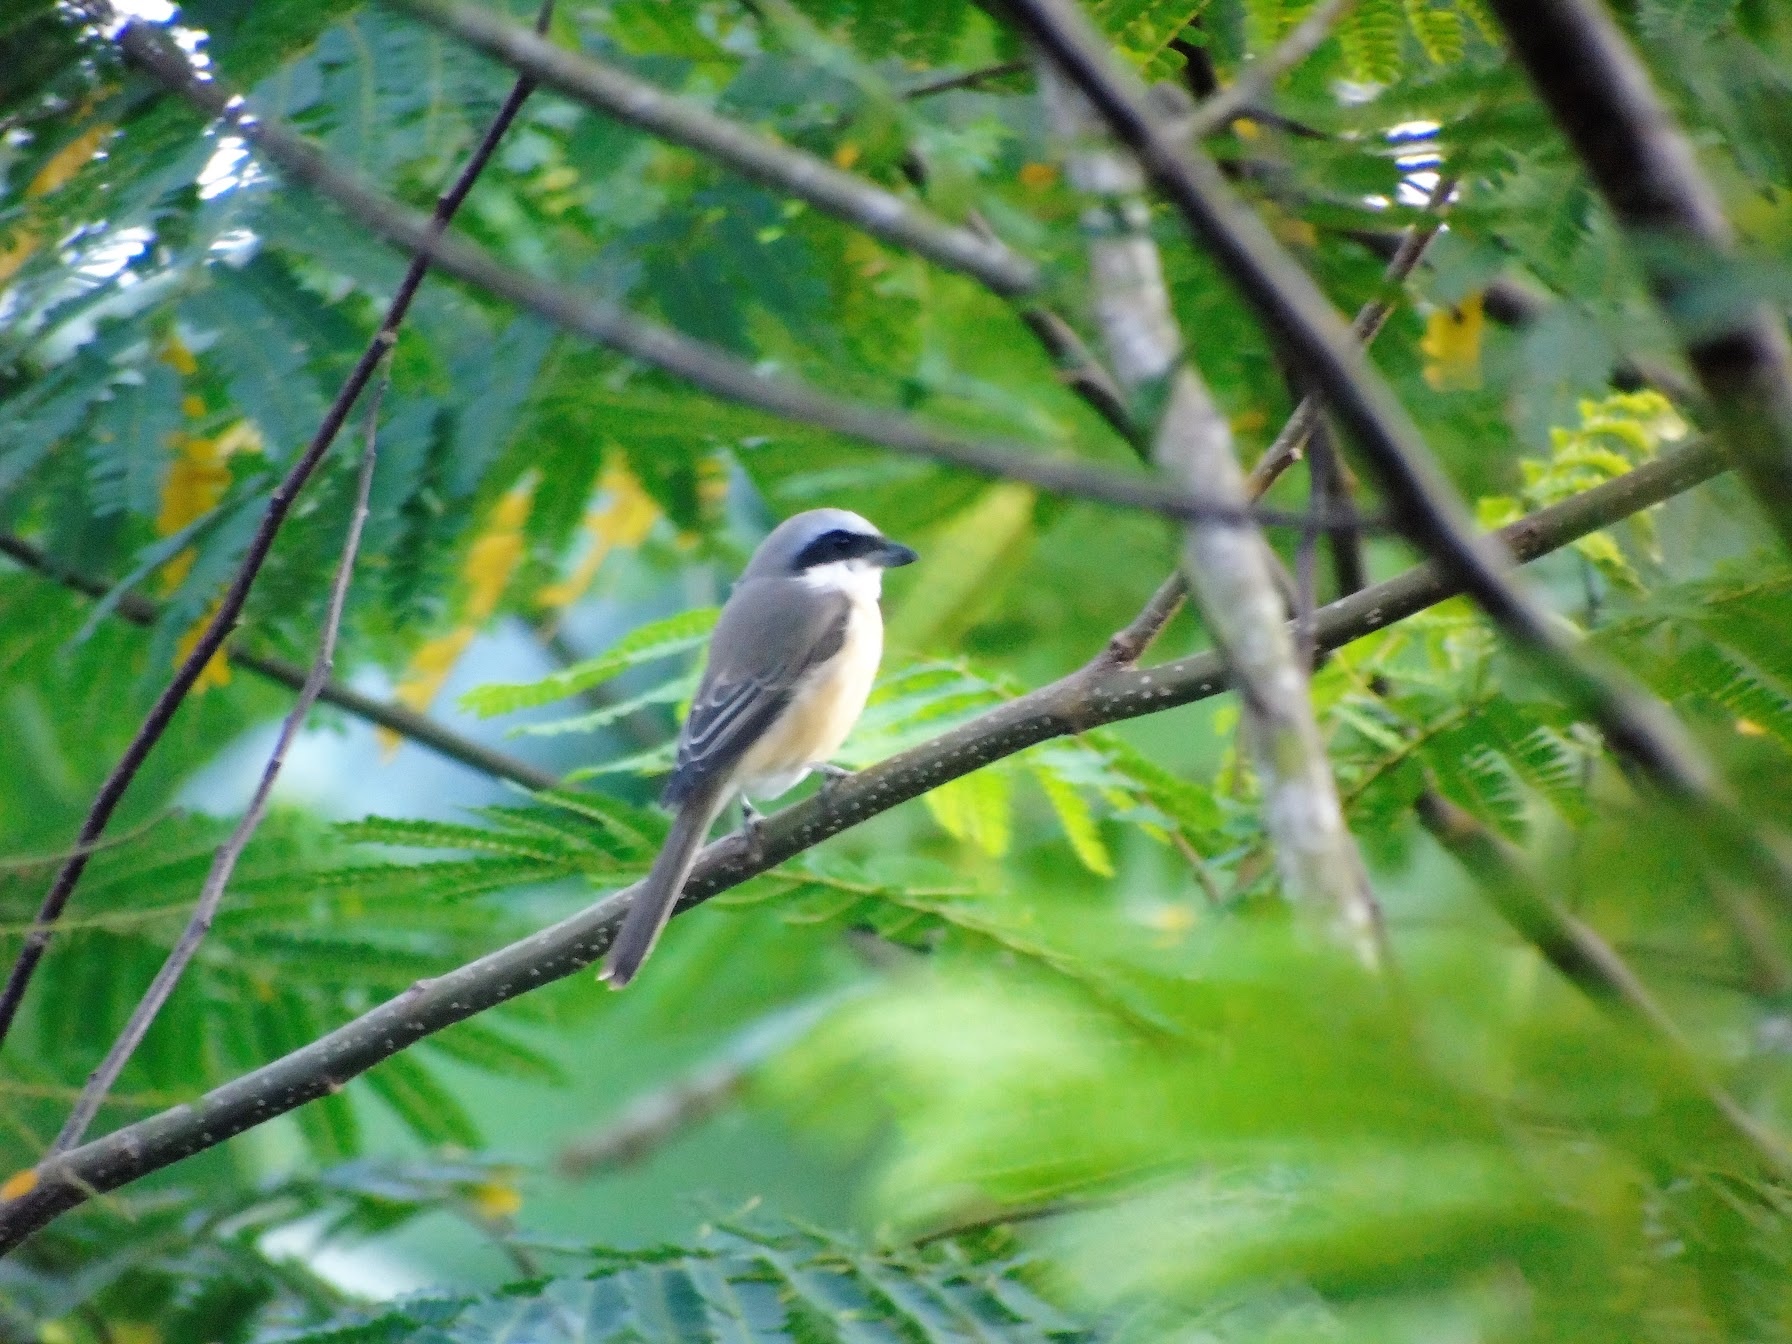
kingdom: Animalia
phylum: Chordata
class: Aves
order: Passeriformes
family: Laniidae
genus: Lanius
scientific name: Lanius cristatus
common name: Brown shrike
